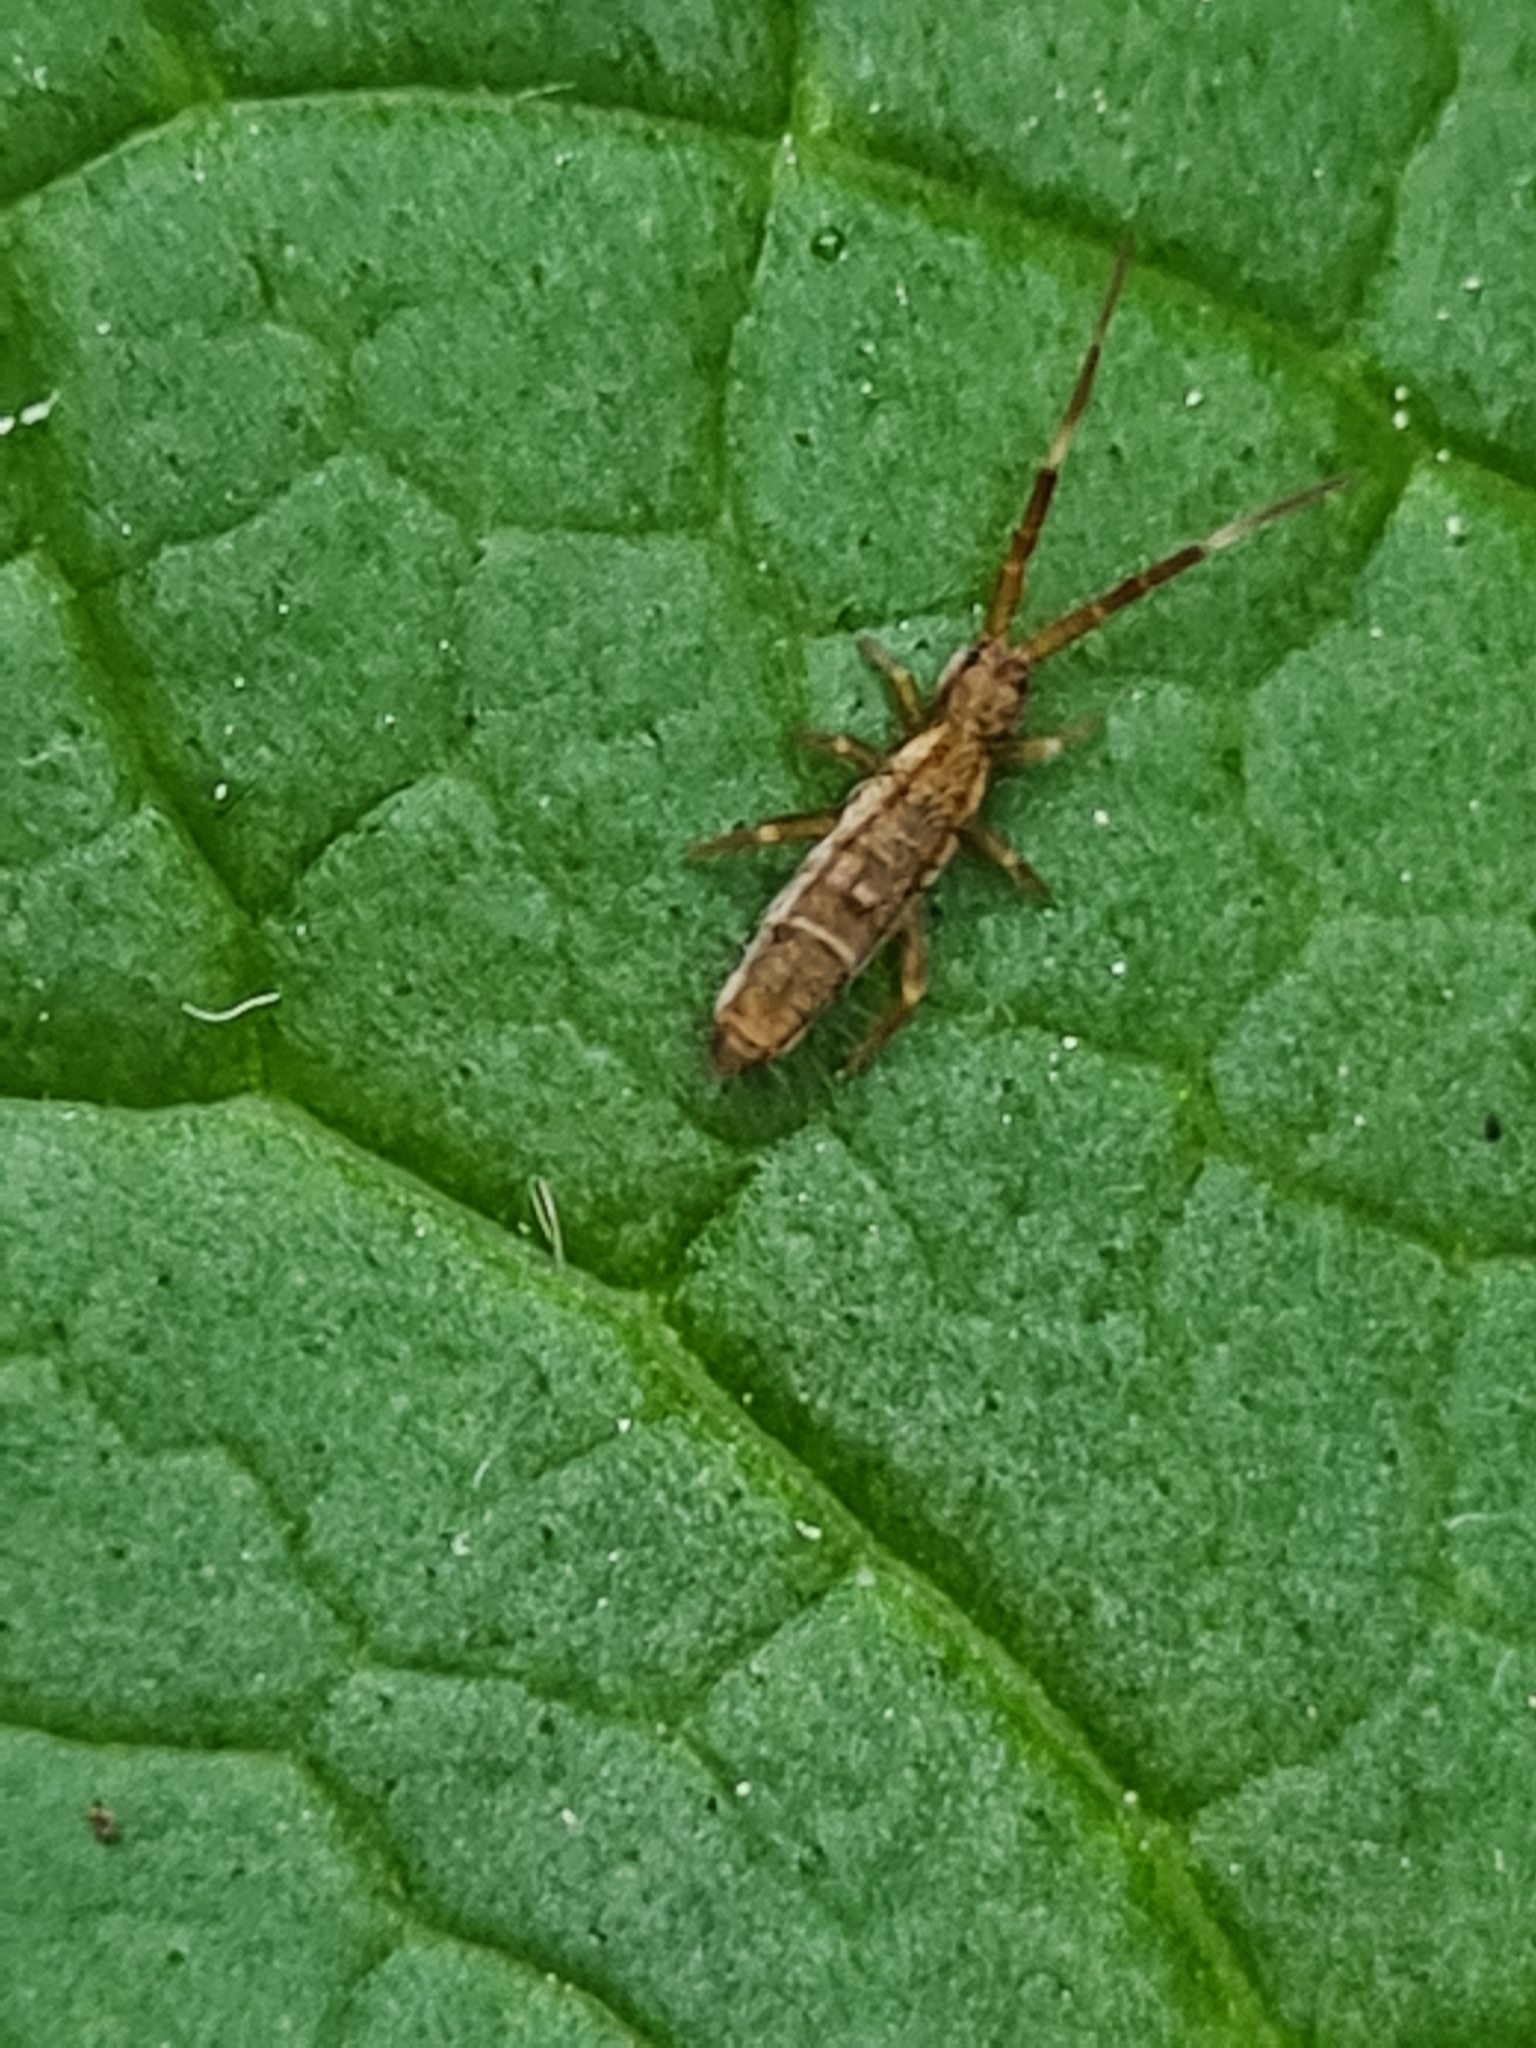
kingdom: Animalia
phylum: Arthropoda
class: Collembola
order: Entomobryomorpha
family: Entomobryidae
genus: Entomobrya
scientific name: Entomobrya nivalis
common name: Cosmopolitan springtail
